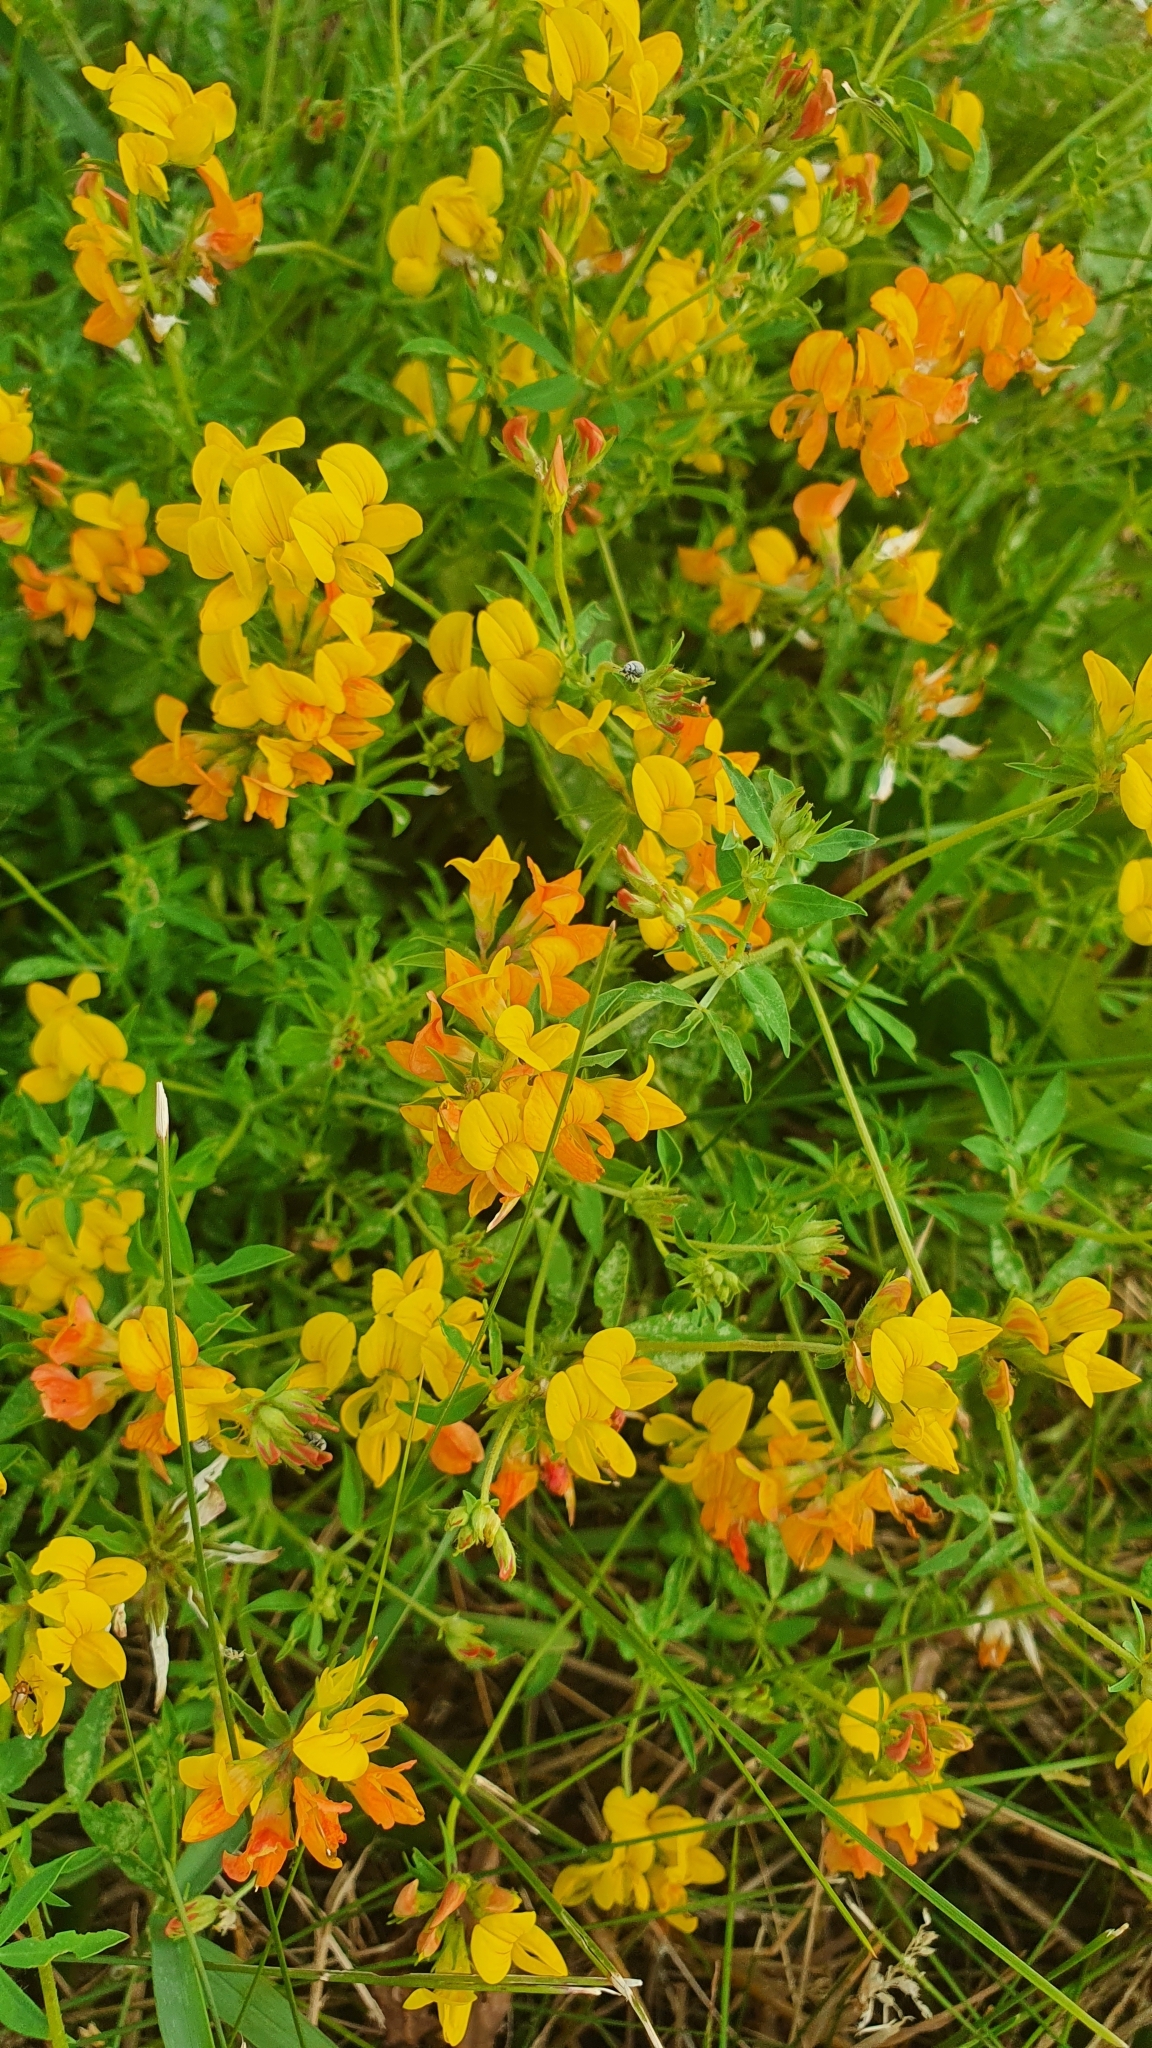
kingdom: Plantae
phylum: Tracheophyta
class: Magnoliopsida
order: Fabales
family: Fabaceae
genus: Lotus
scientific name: Lotus corniculatus
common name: Common bird's-foot-trefoil
